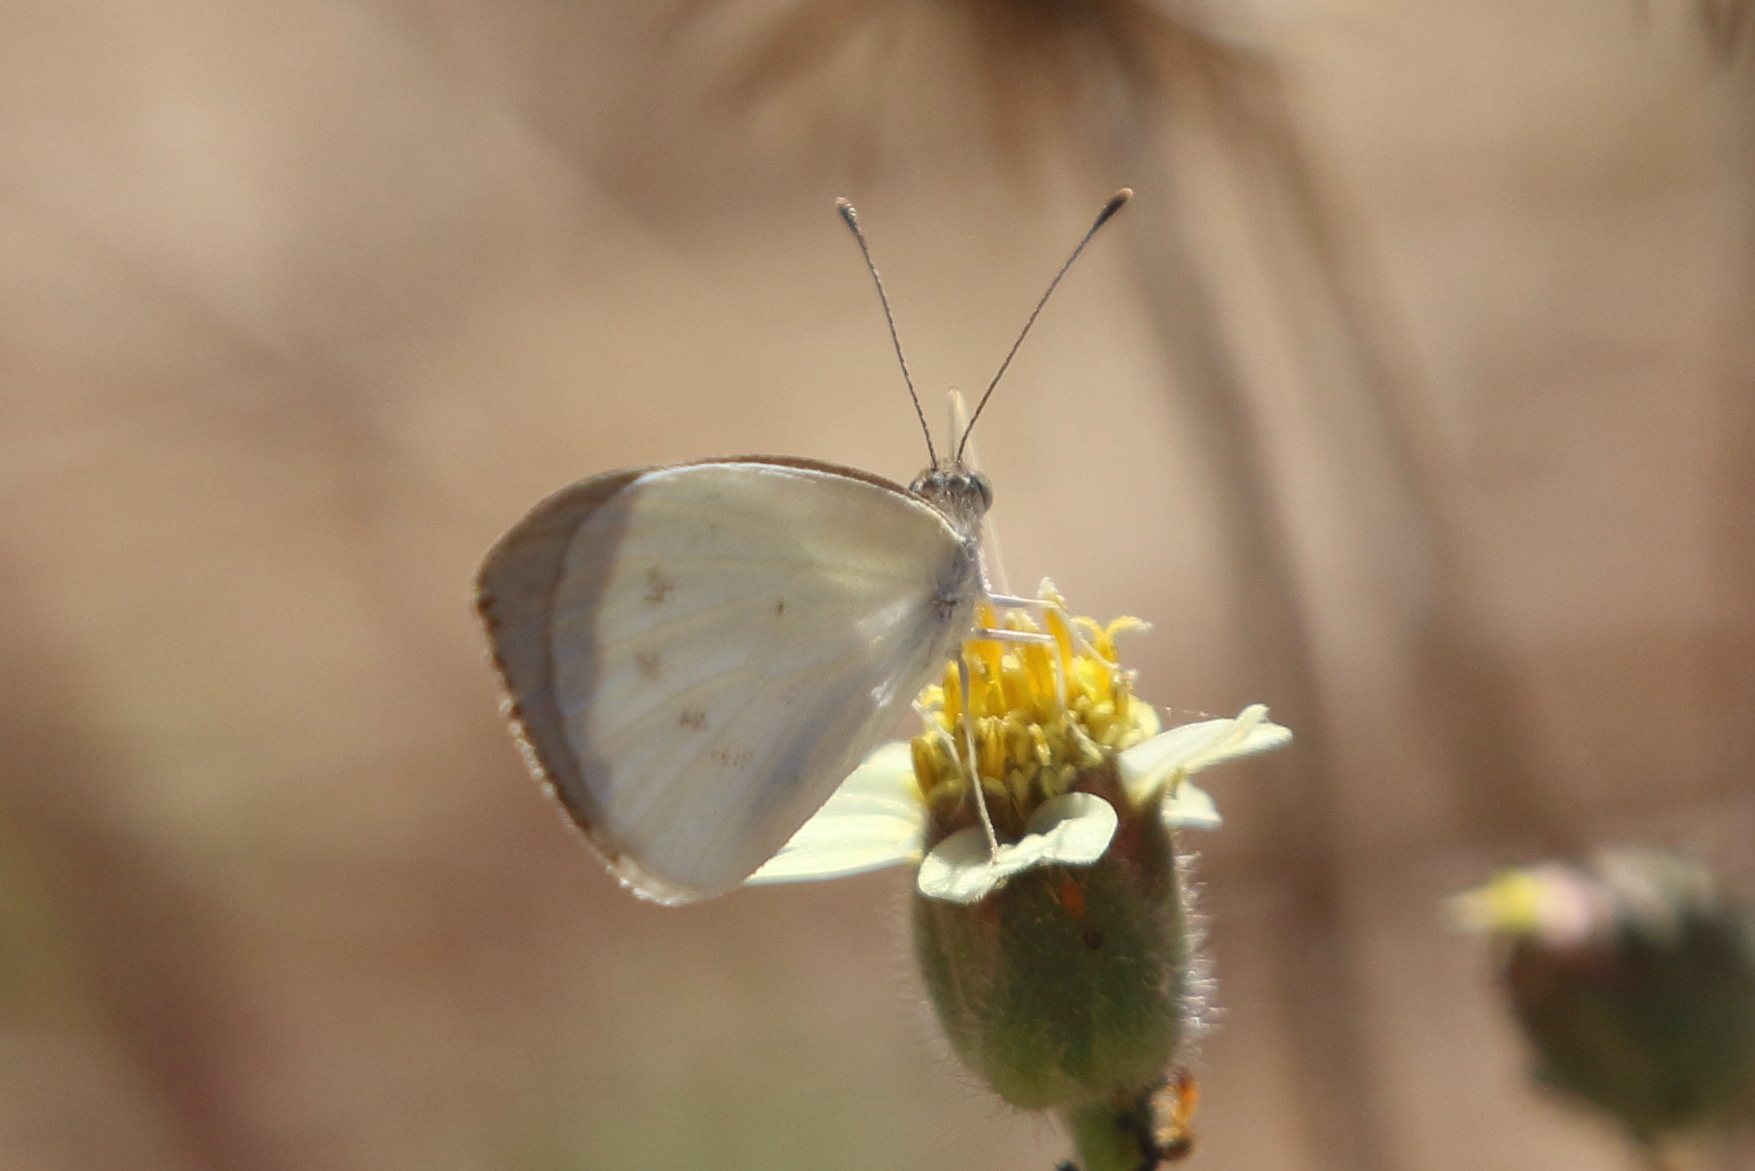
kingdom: Animalia
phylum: Arthropoda
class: Insecta
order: Lepidoptera
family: Pieridae
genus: Elodina
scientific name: Elodina walkeri
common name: Small pearl-white
